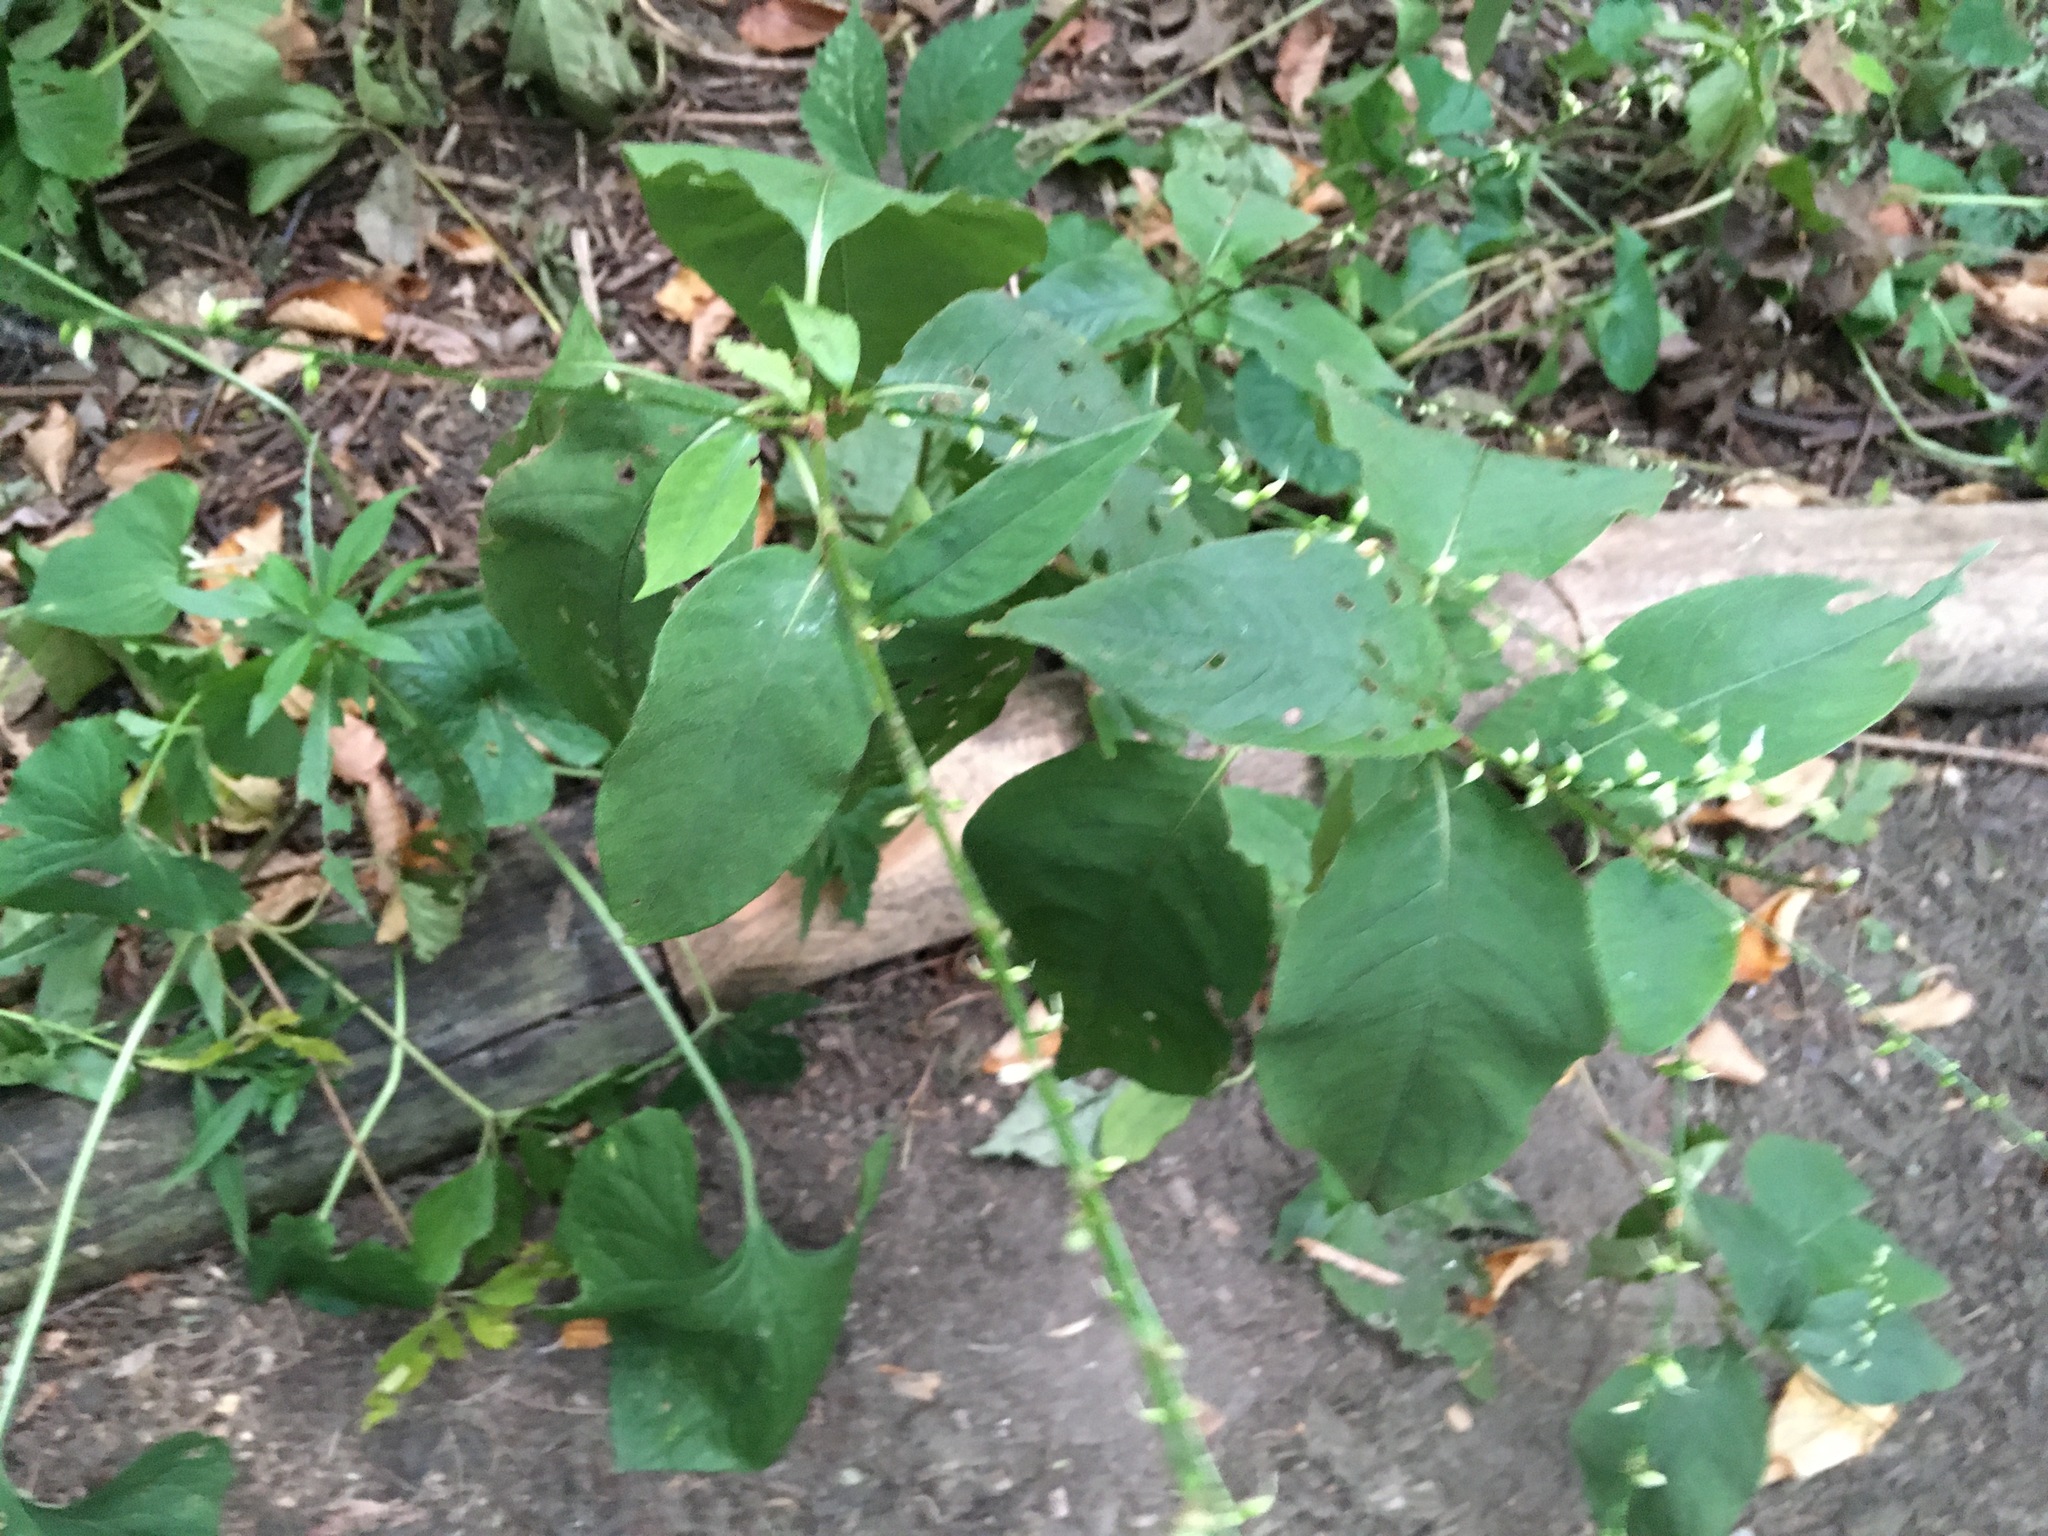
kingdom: Plantae
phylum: Tracheophyta
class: Magnoliopsida
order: Caryophyllales
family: Polygonaceae
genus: Persicaria
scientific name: Persicaria virginiana
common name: Jumpseed
